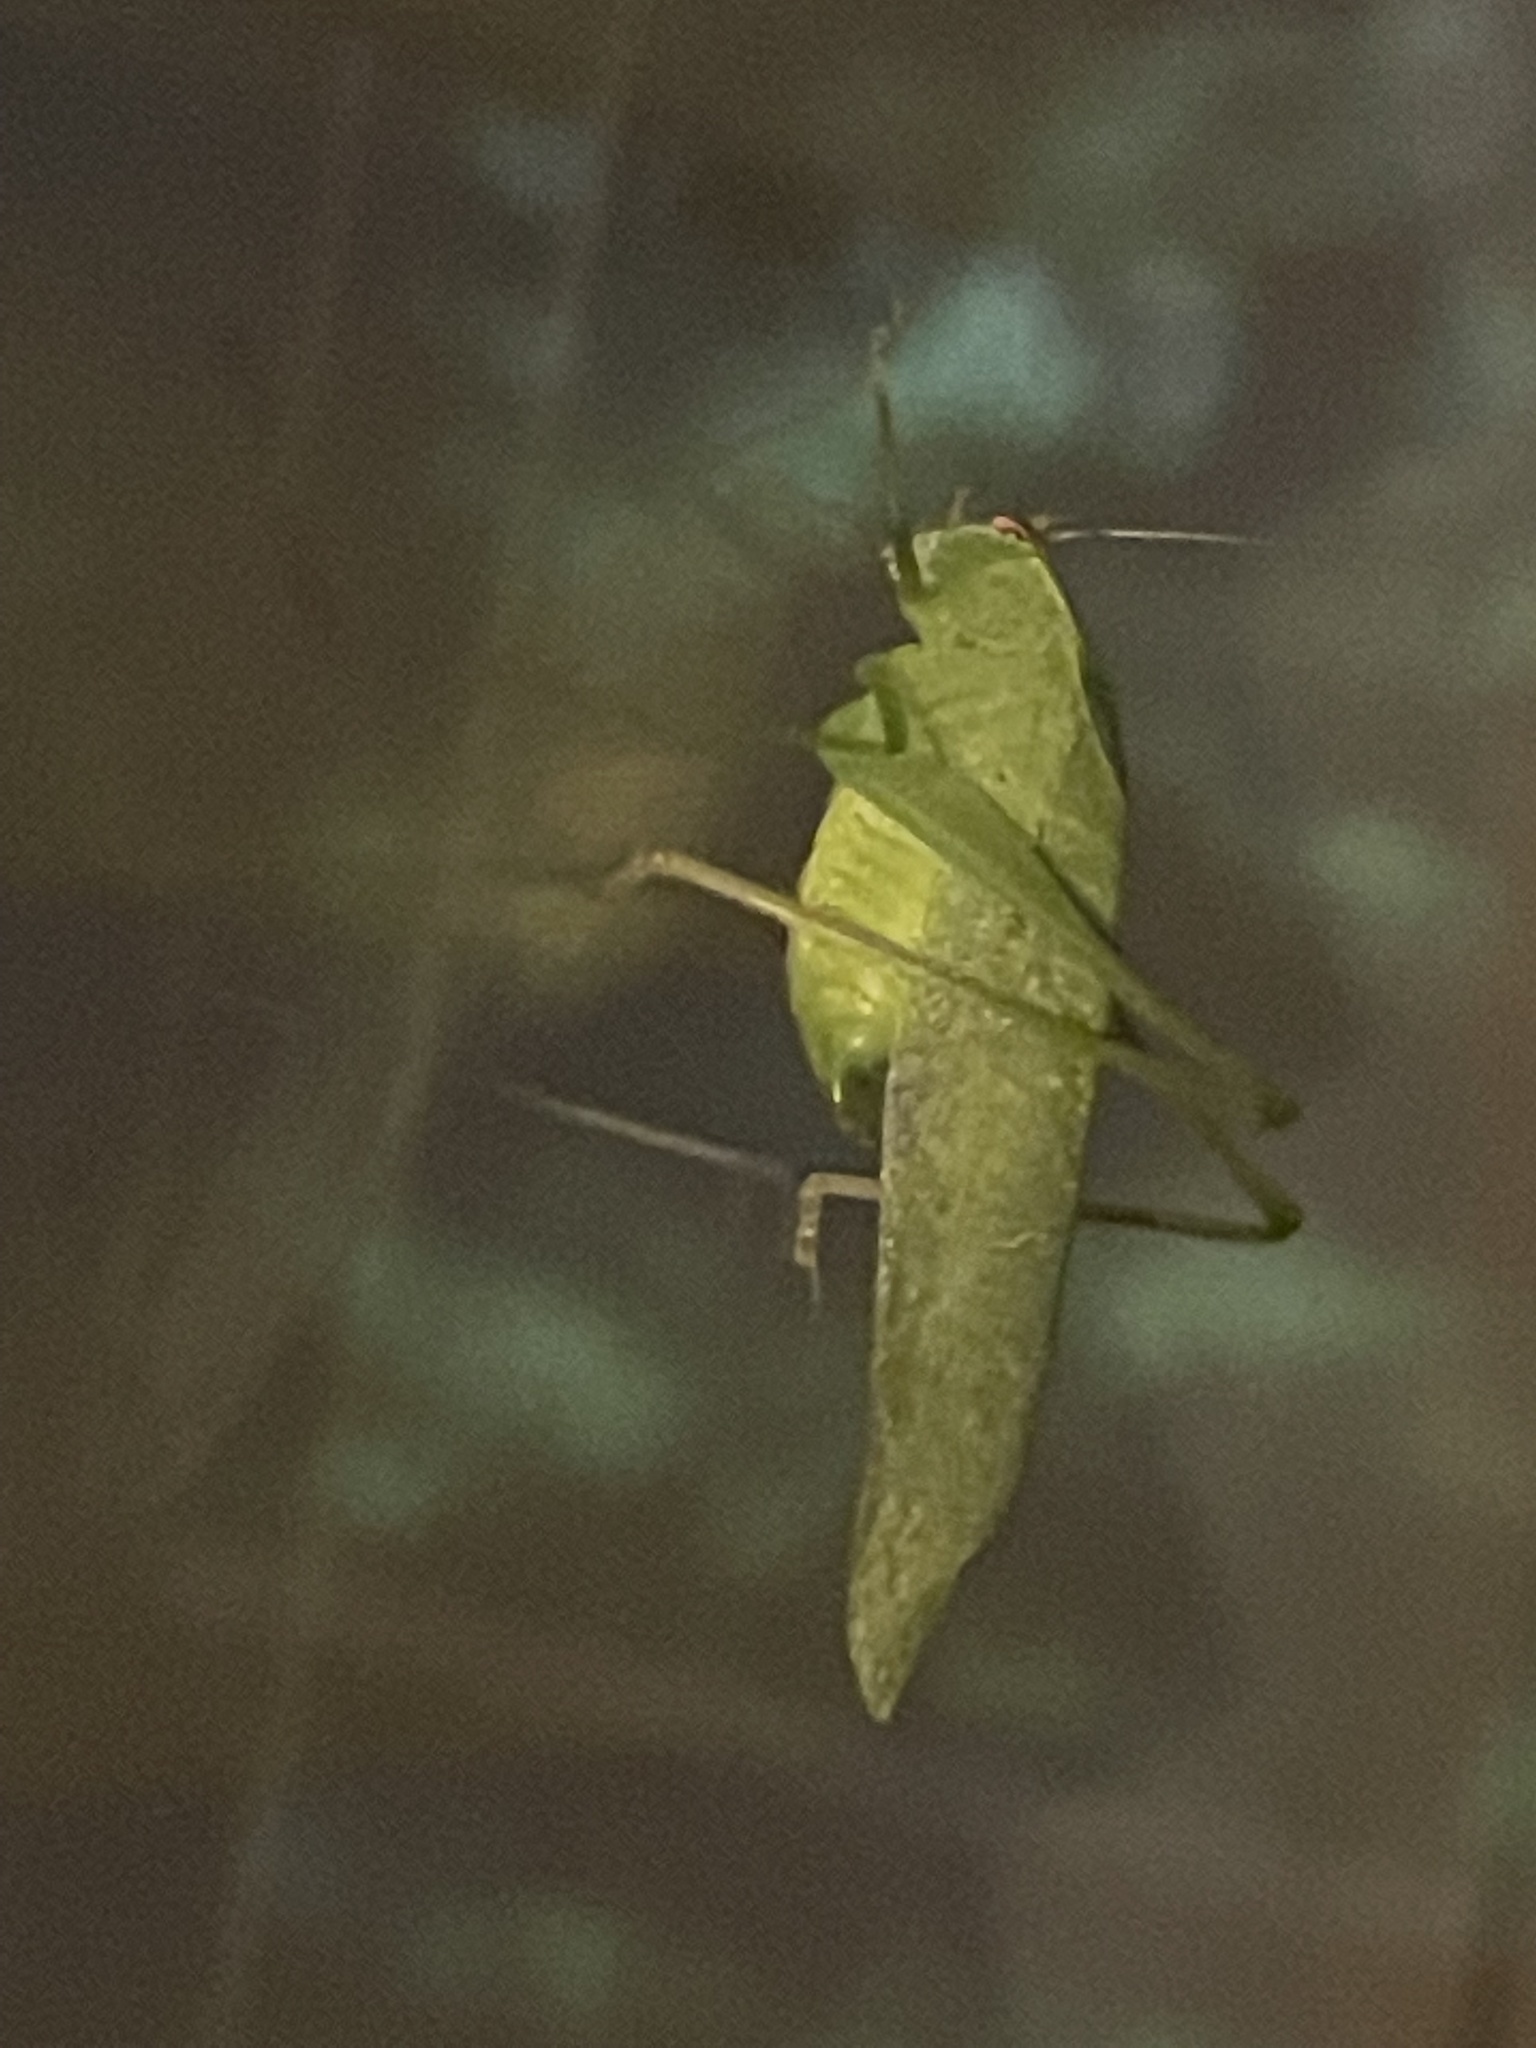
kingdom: Animalia
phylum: Arthropoda
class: Insecta
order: Orthoptera
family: Tettigoniidae
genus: Montezumina
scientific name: Montezumina modesta
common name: Modest katydid
